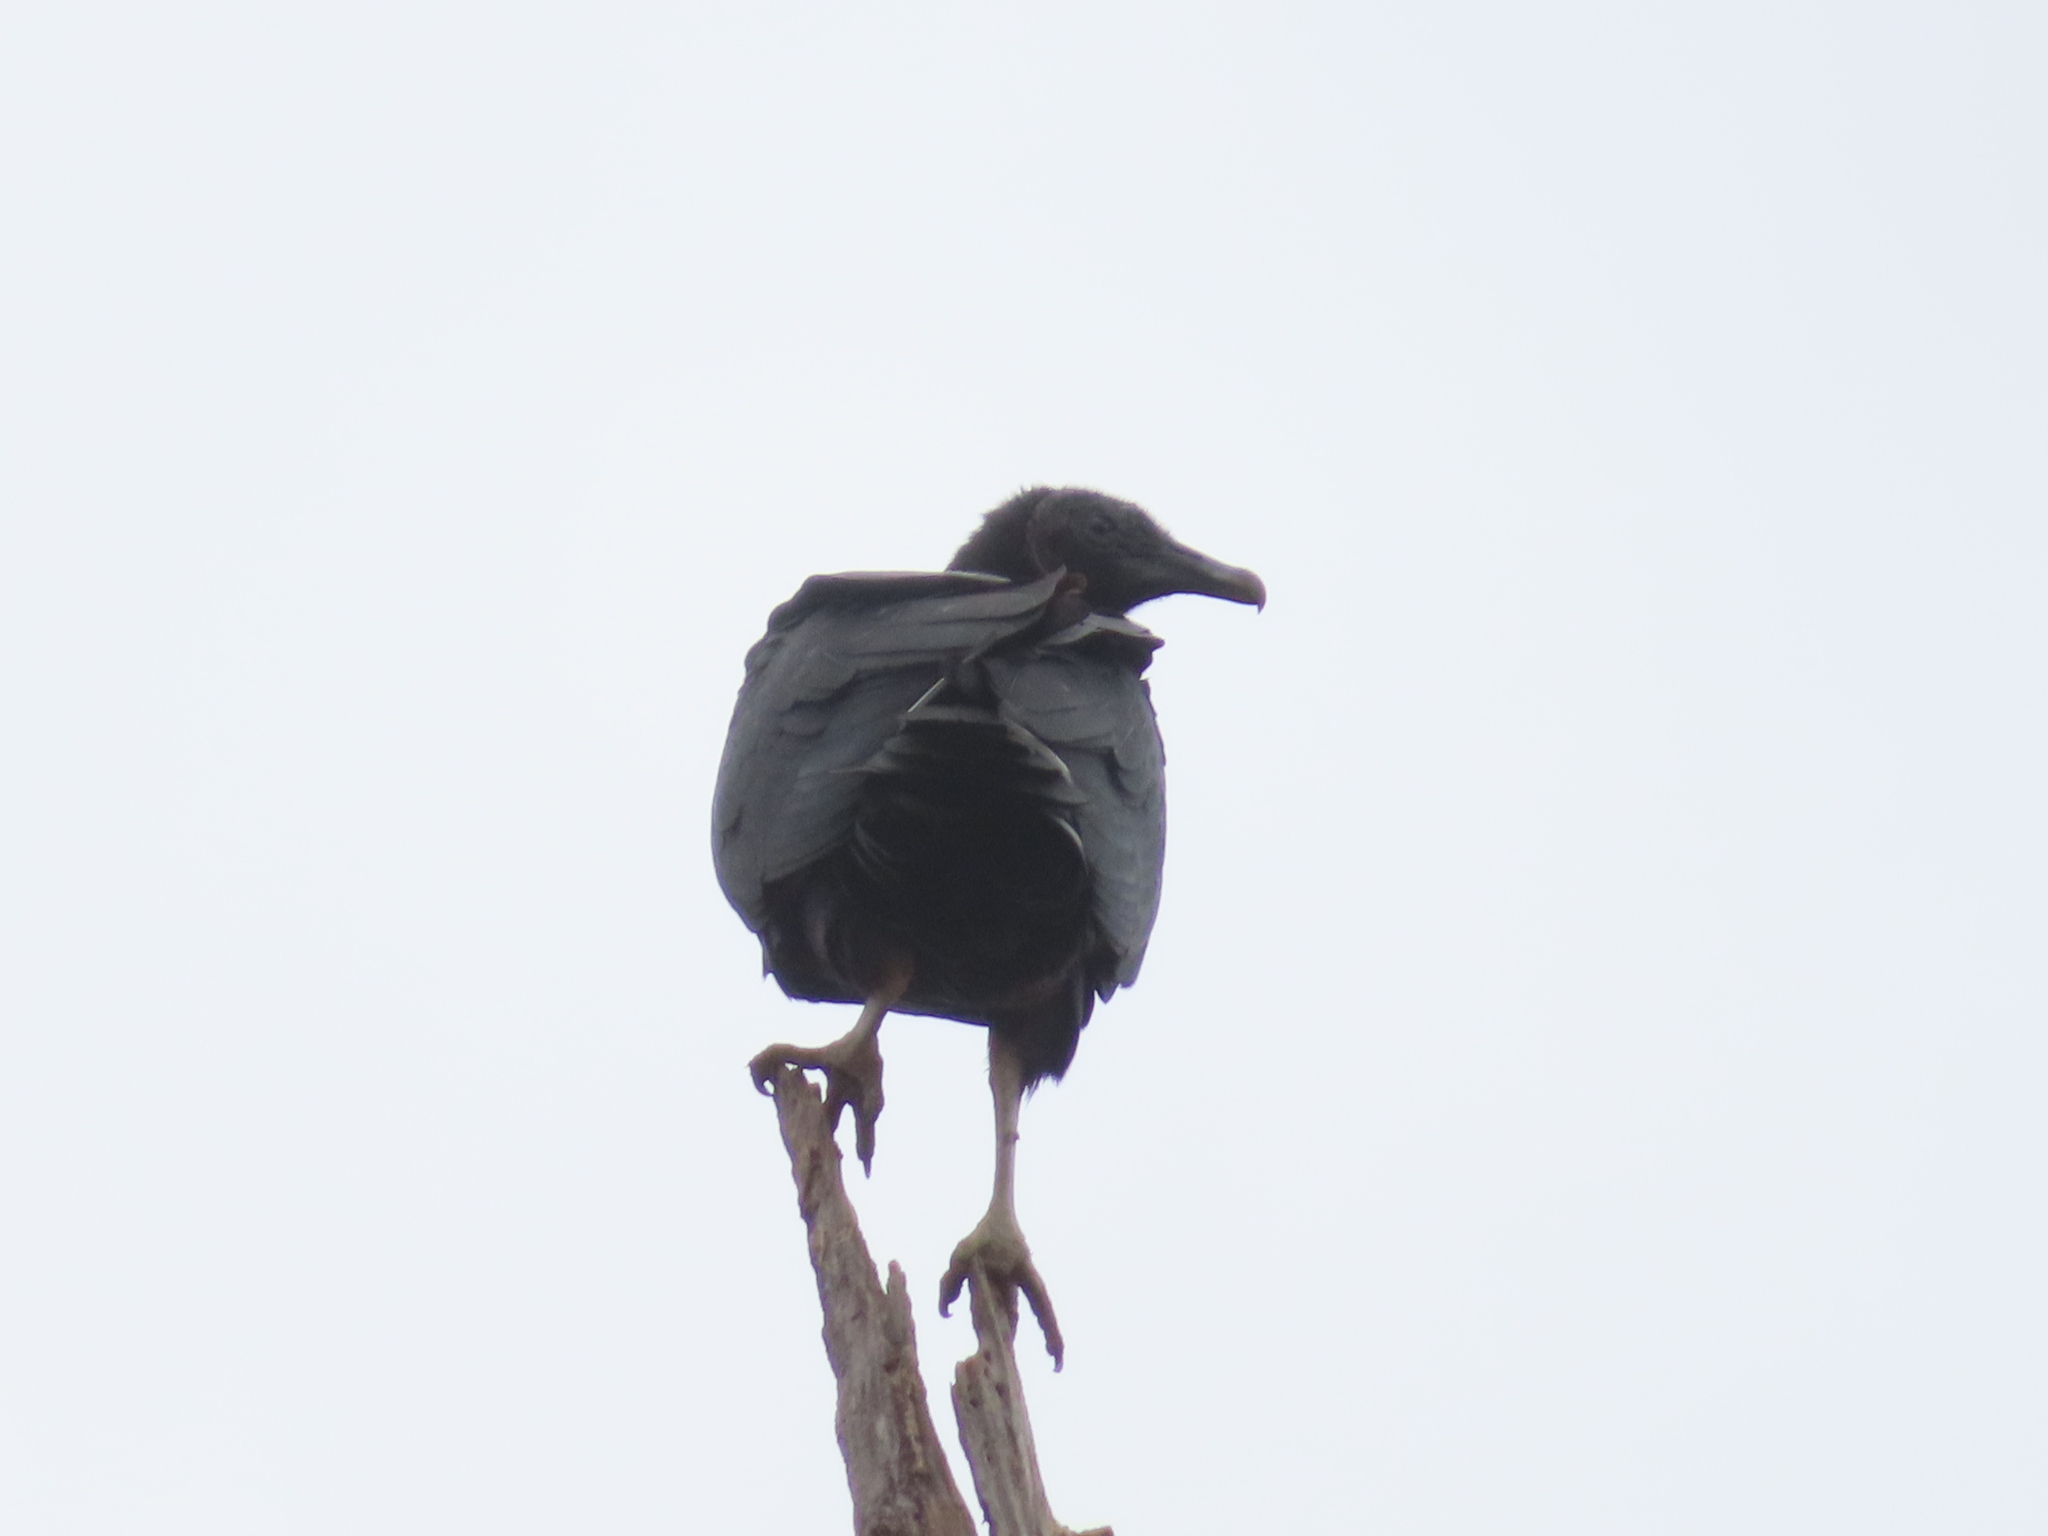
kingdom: Animalia
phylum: Chordata
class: Aves
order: Accipitriformes
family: Cathartidae
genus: Coragyps
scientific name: Coragyps atratus
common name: Black vulture
